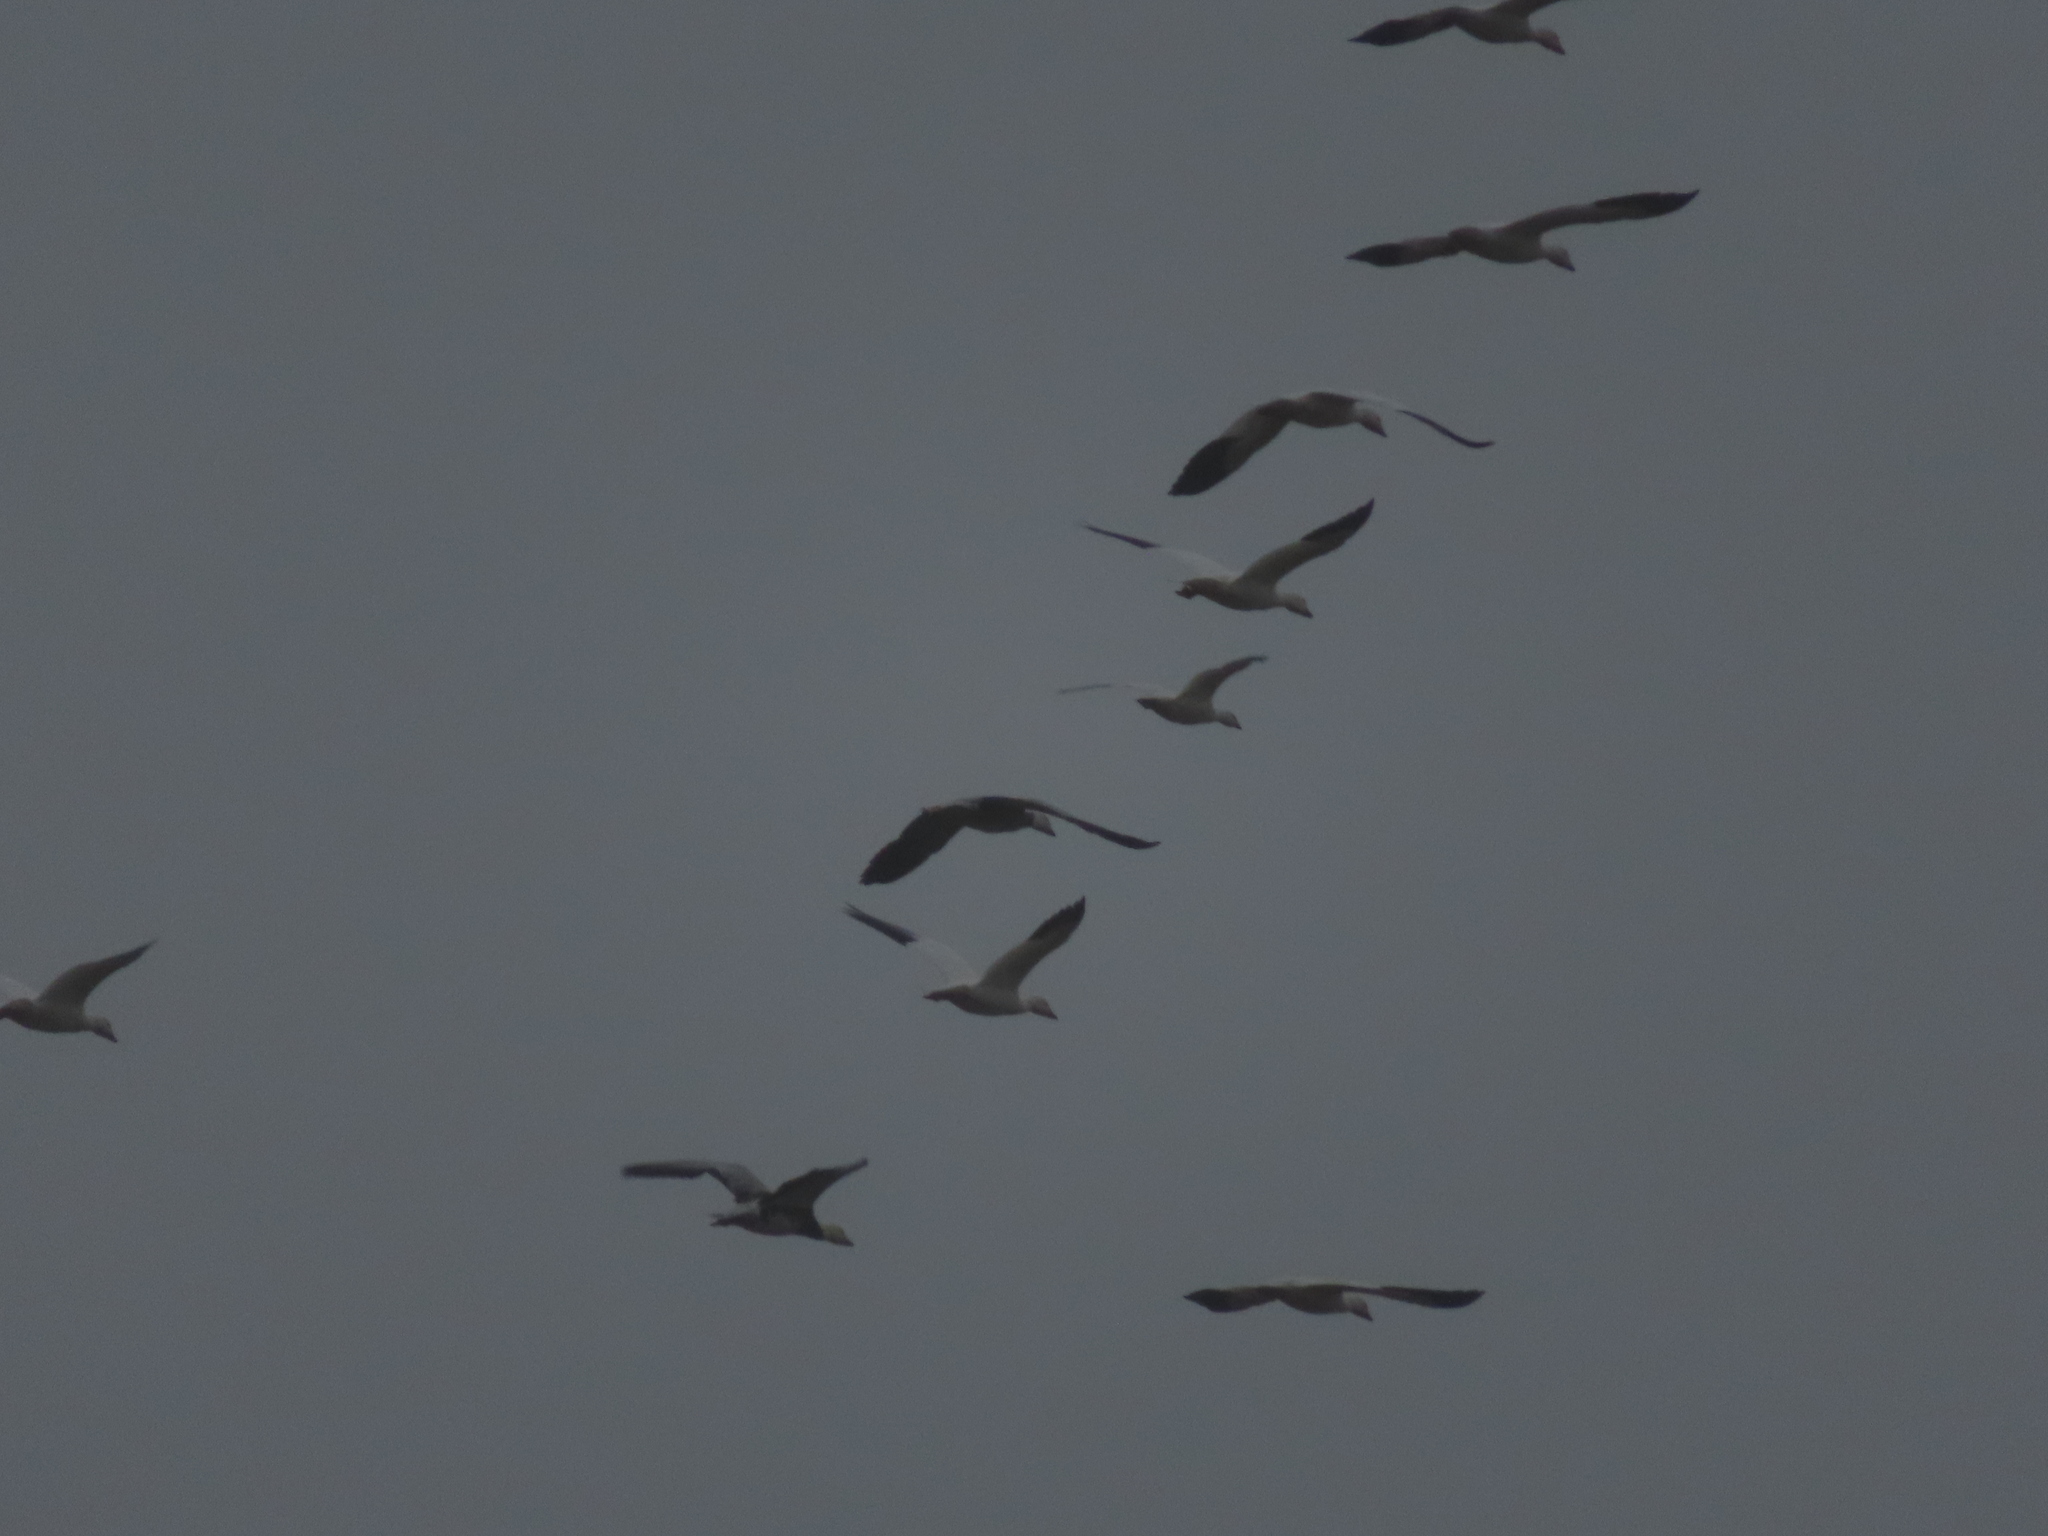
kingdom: Animalia
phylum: Chordata
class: Aves
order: Anseriformes
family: Anatidae
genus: Anser
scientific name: Anser caerulescens
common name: Snow goose
